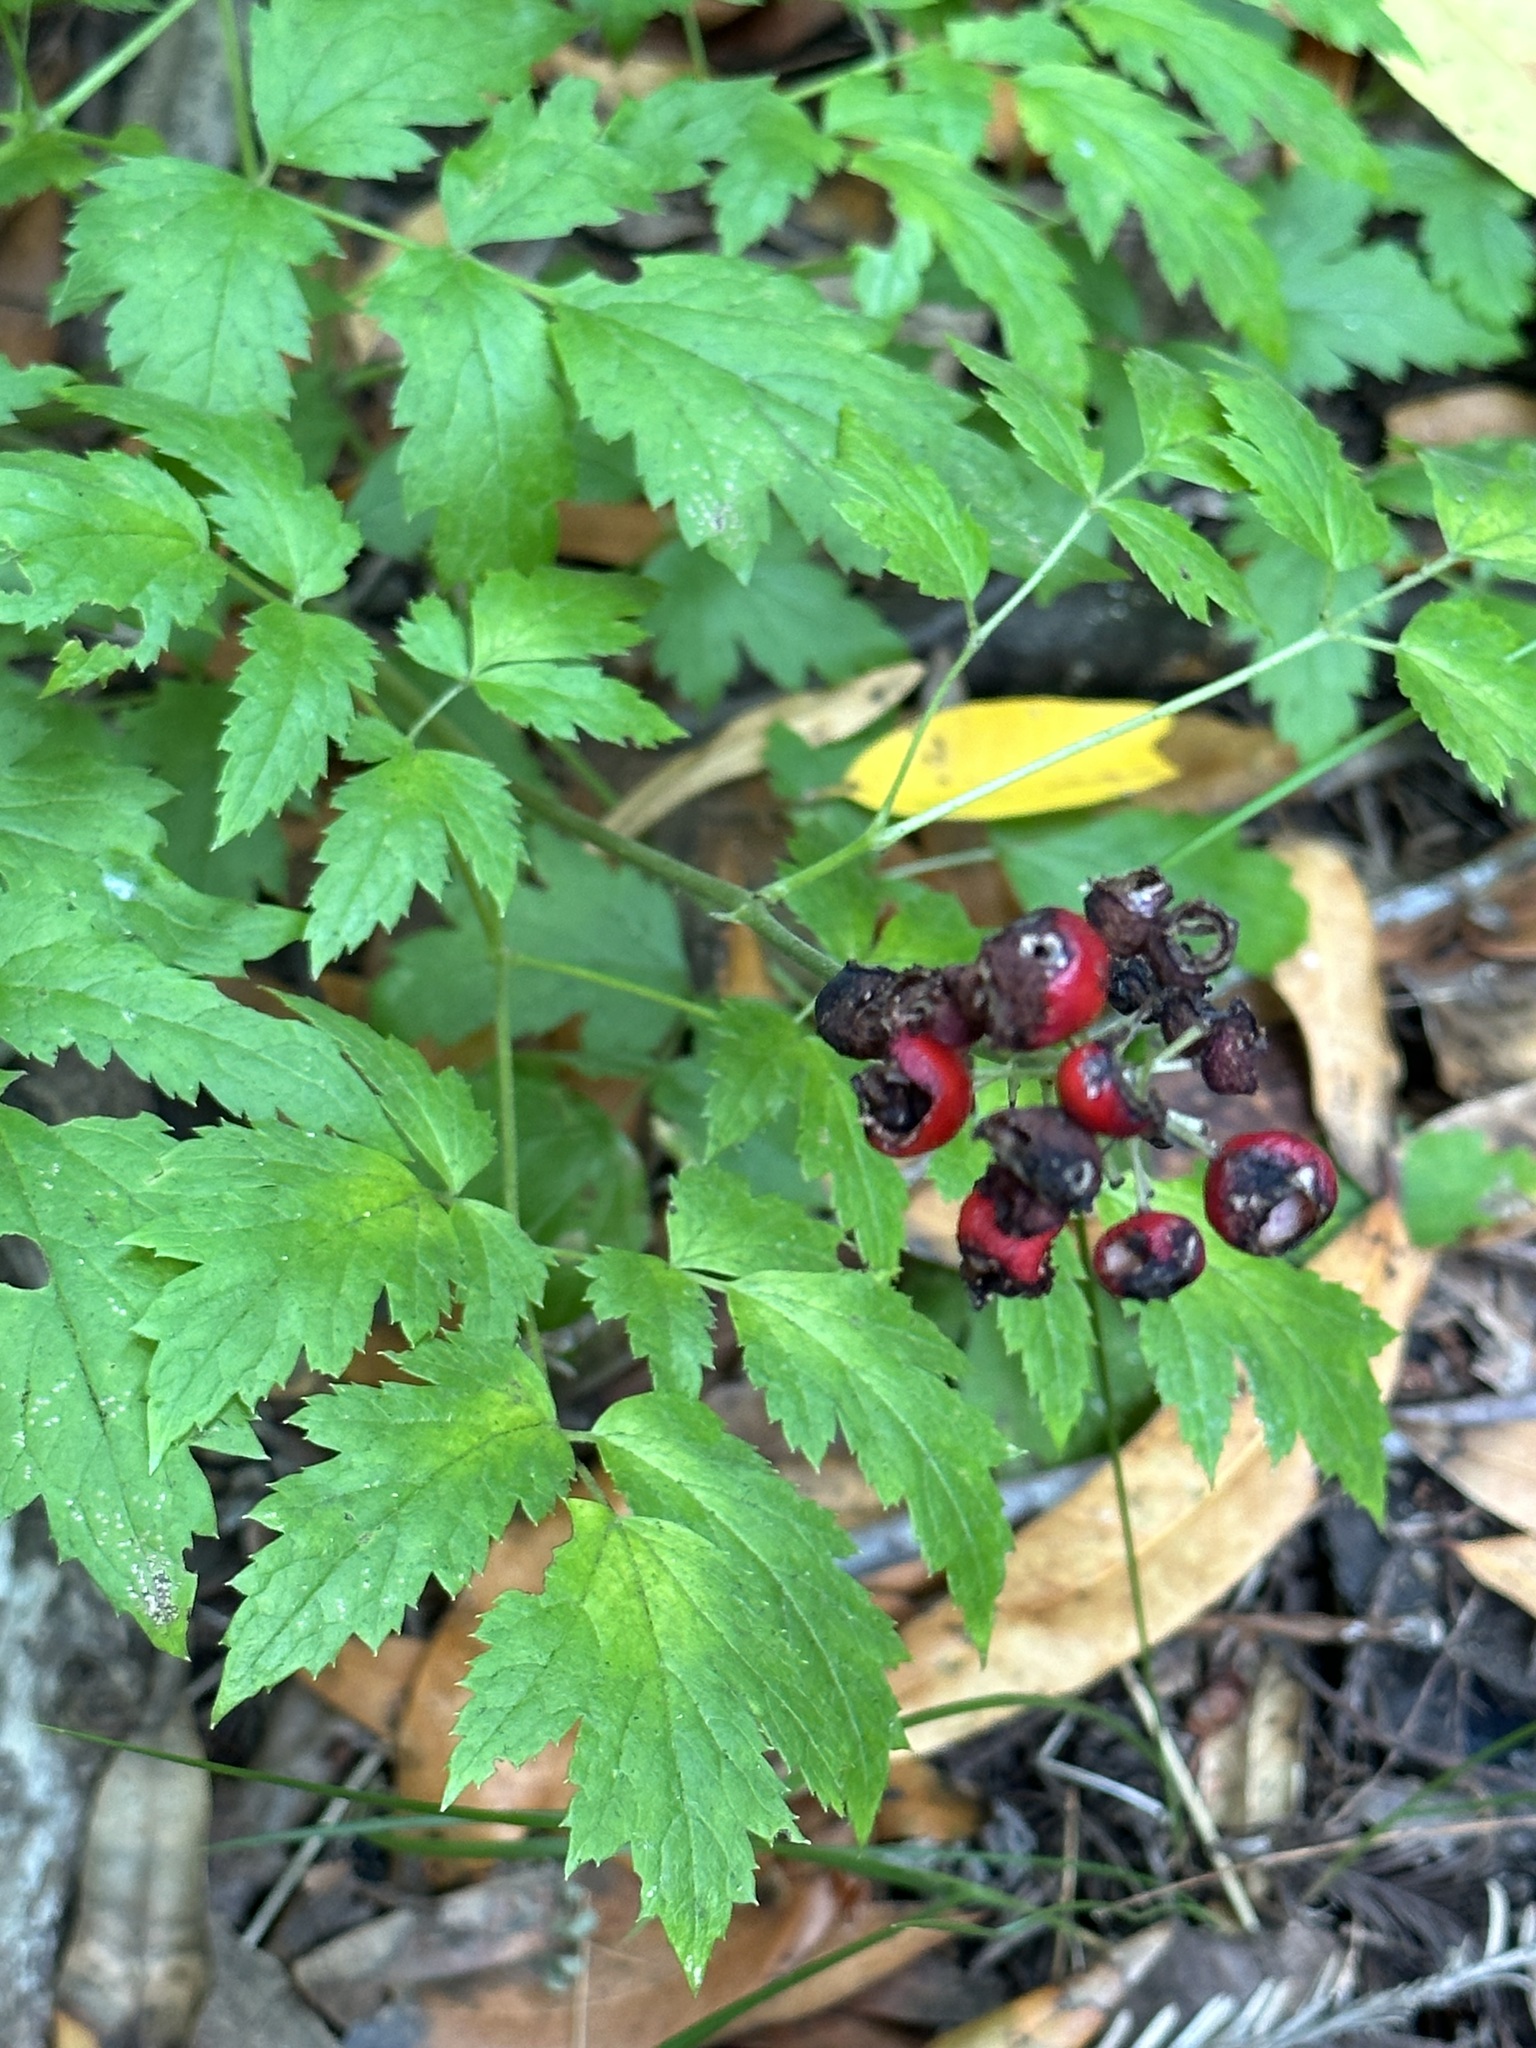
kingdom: Plantae
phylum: Tracheophyta
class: Magnoliopsida
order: Ranunculales
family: Ranunculaceae
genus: Actaea
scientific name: Actaea rubra
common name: Red baneberry
